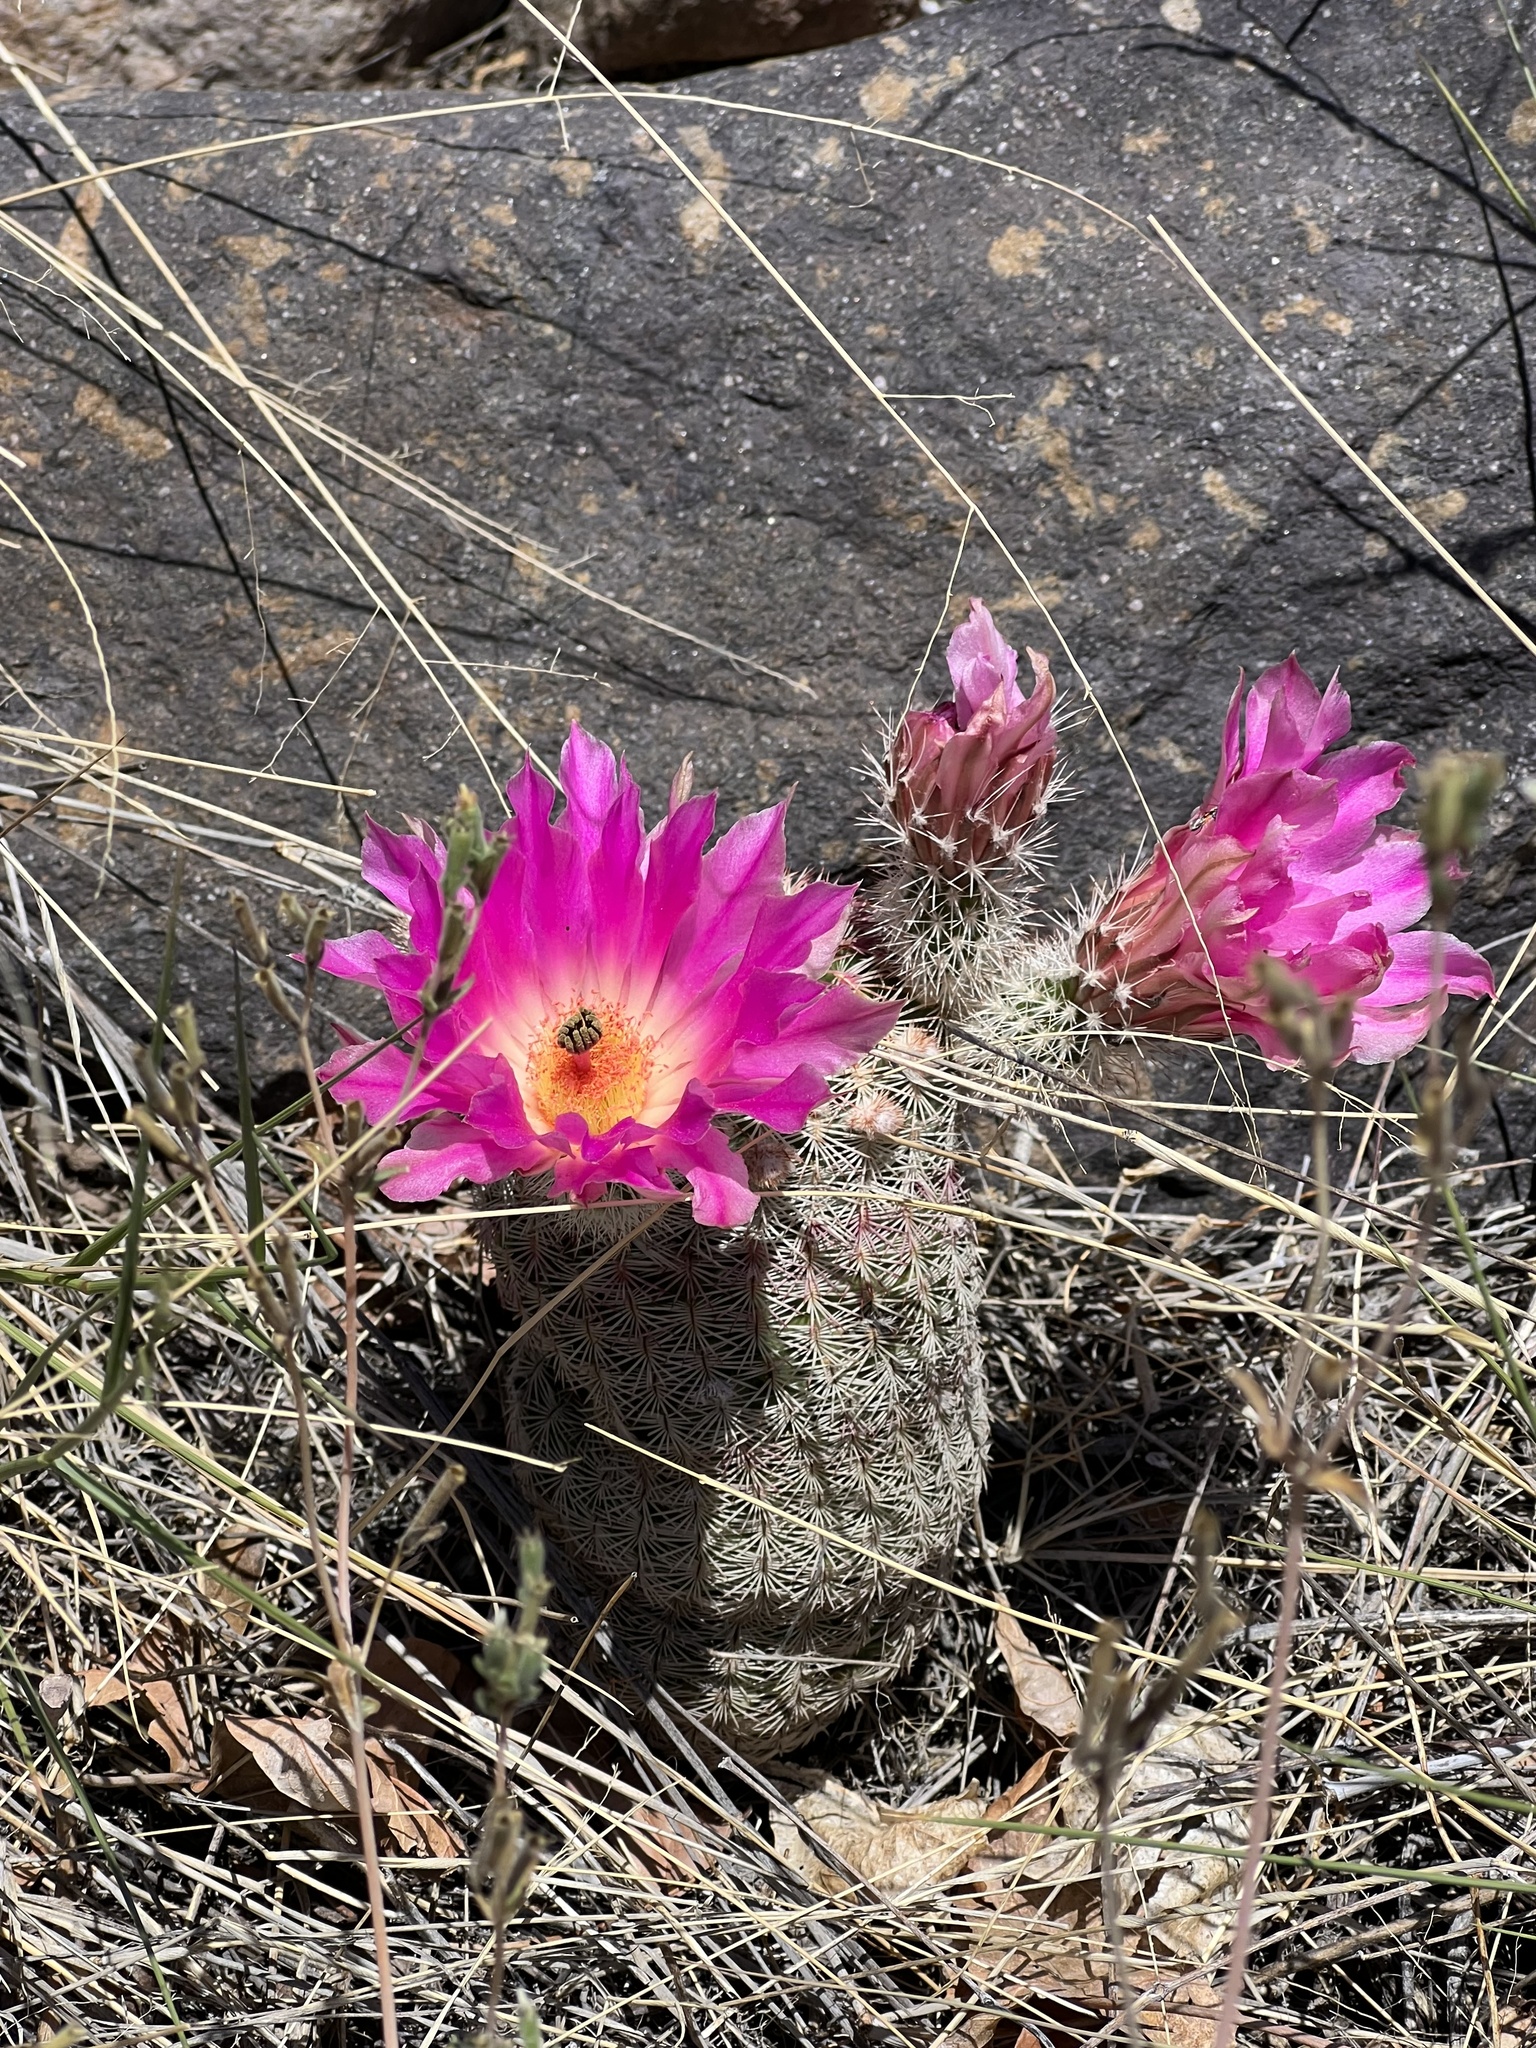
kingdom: Plantae
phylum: Tracheophyta
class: Magnoliopsida
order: Caryophyllales
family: Cactaceae
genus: Echinocereus
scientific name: Echinocereus rigidissimus
